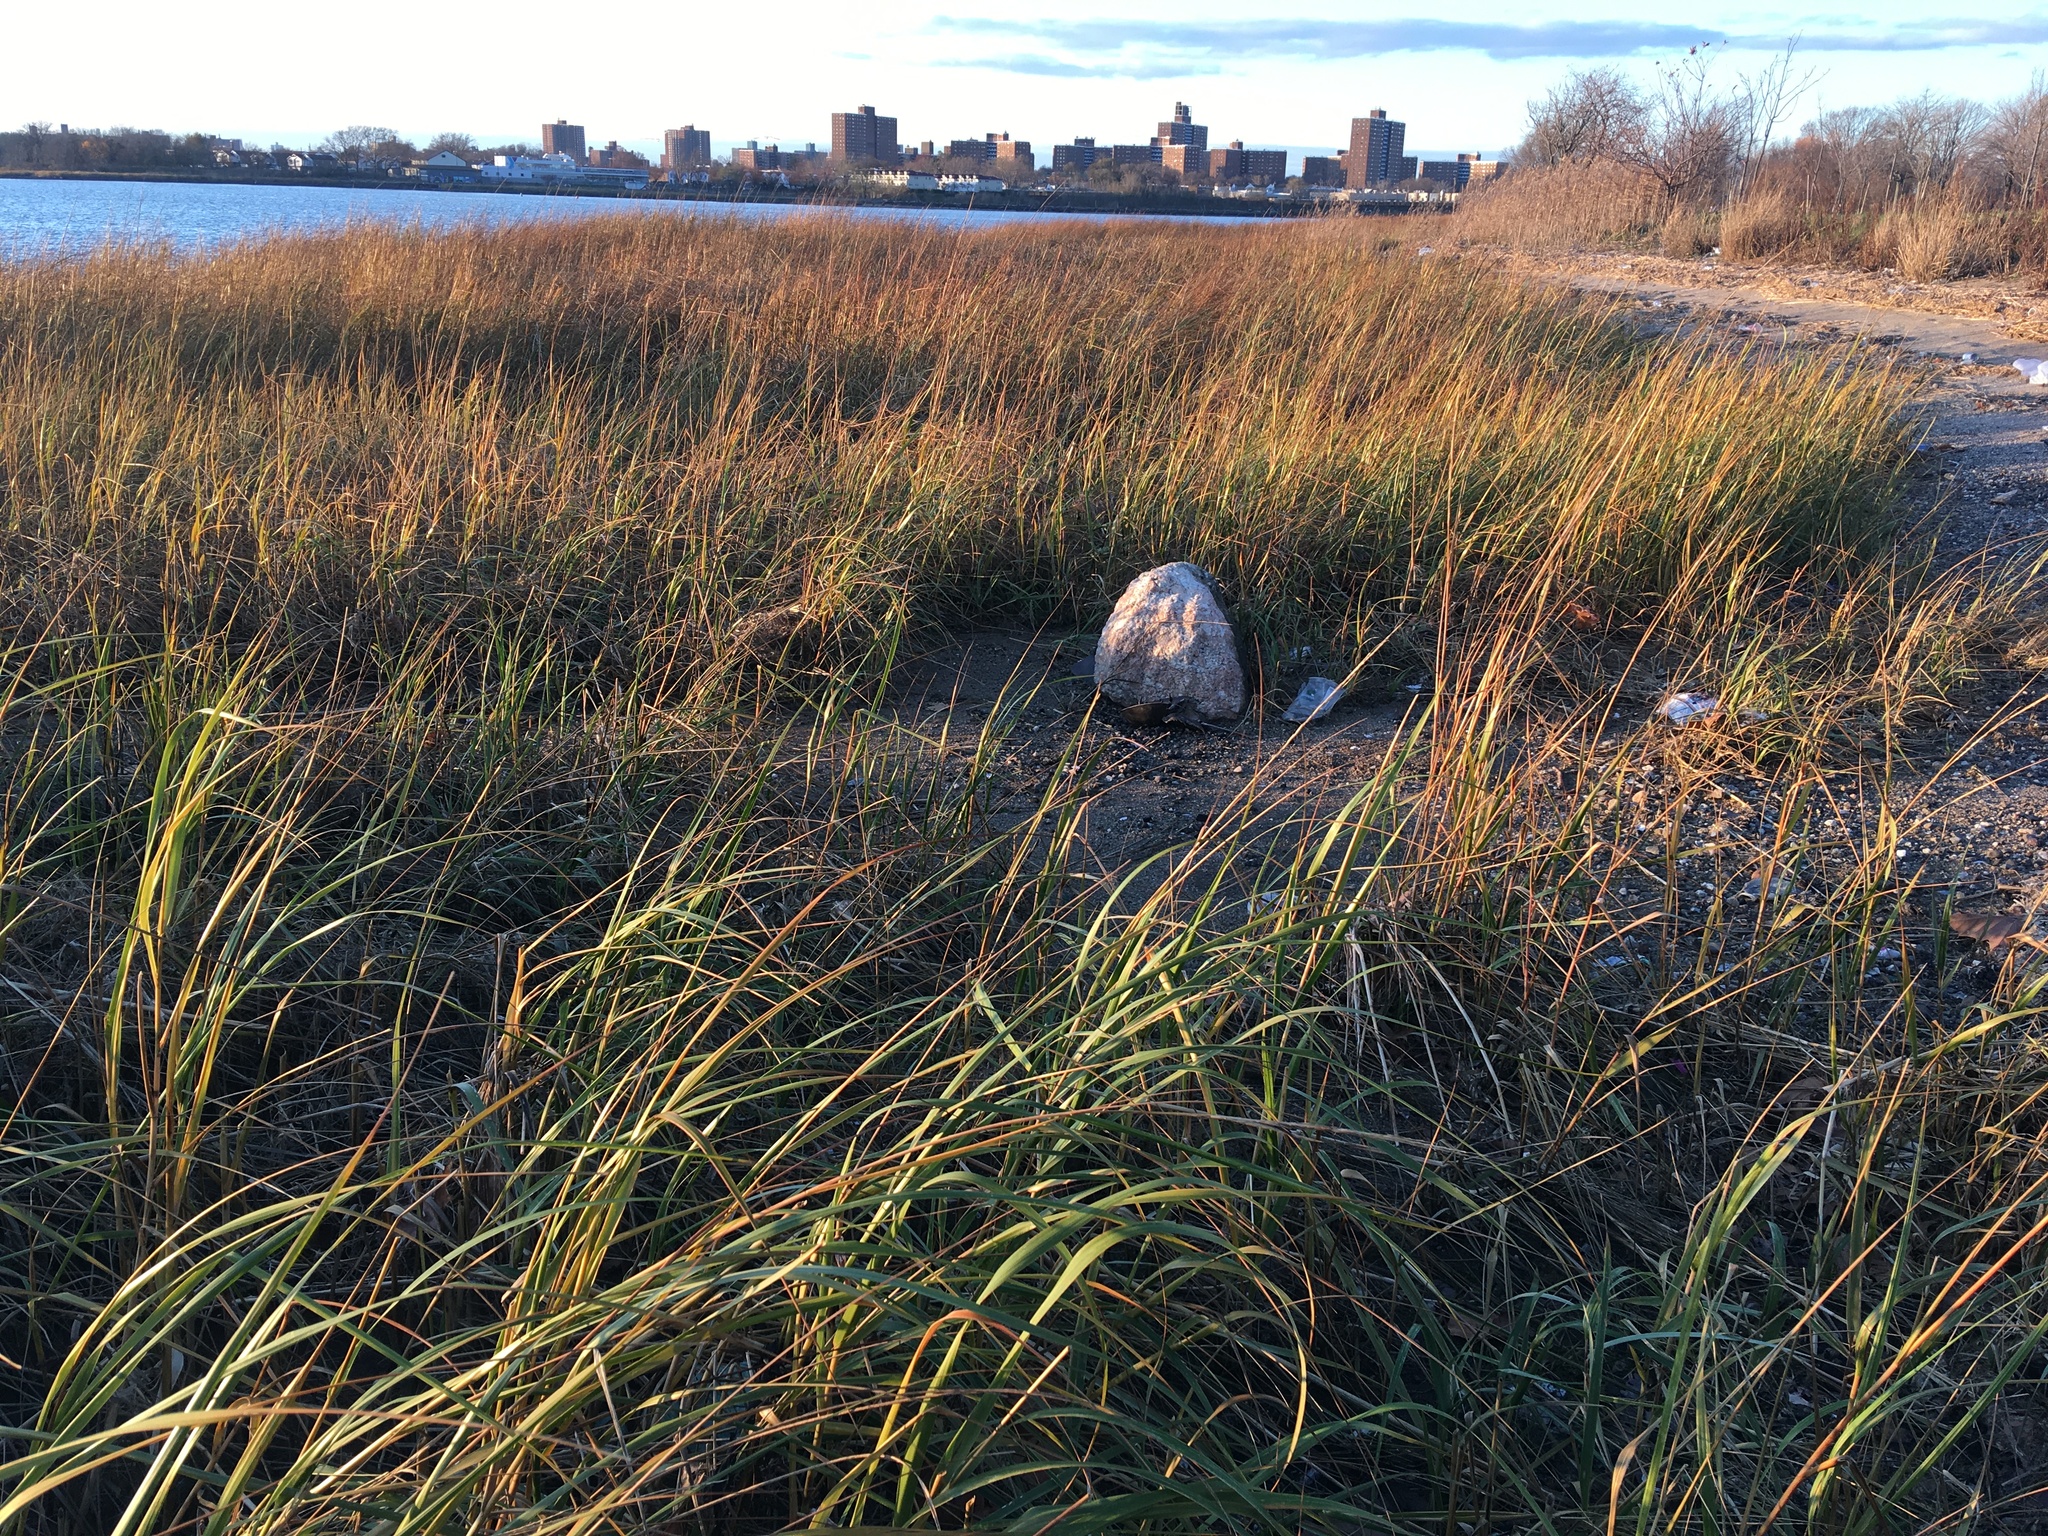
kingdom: Plantae
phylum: Tracheophyta
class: Liliopsida
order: Poales
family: Poaceae
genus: Sporobolus
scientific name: Sporobolus alterniflorus
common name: Atlantic cordgrass
